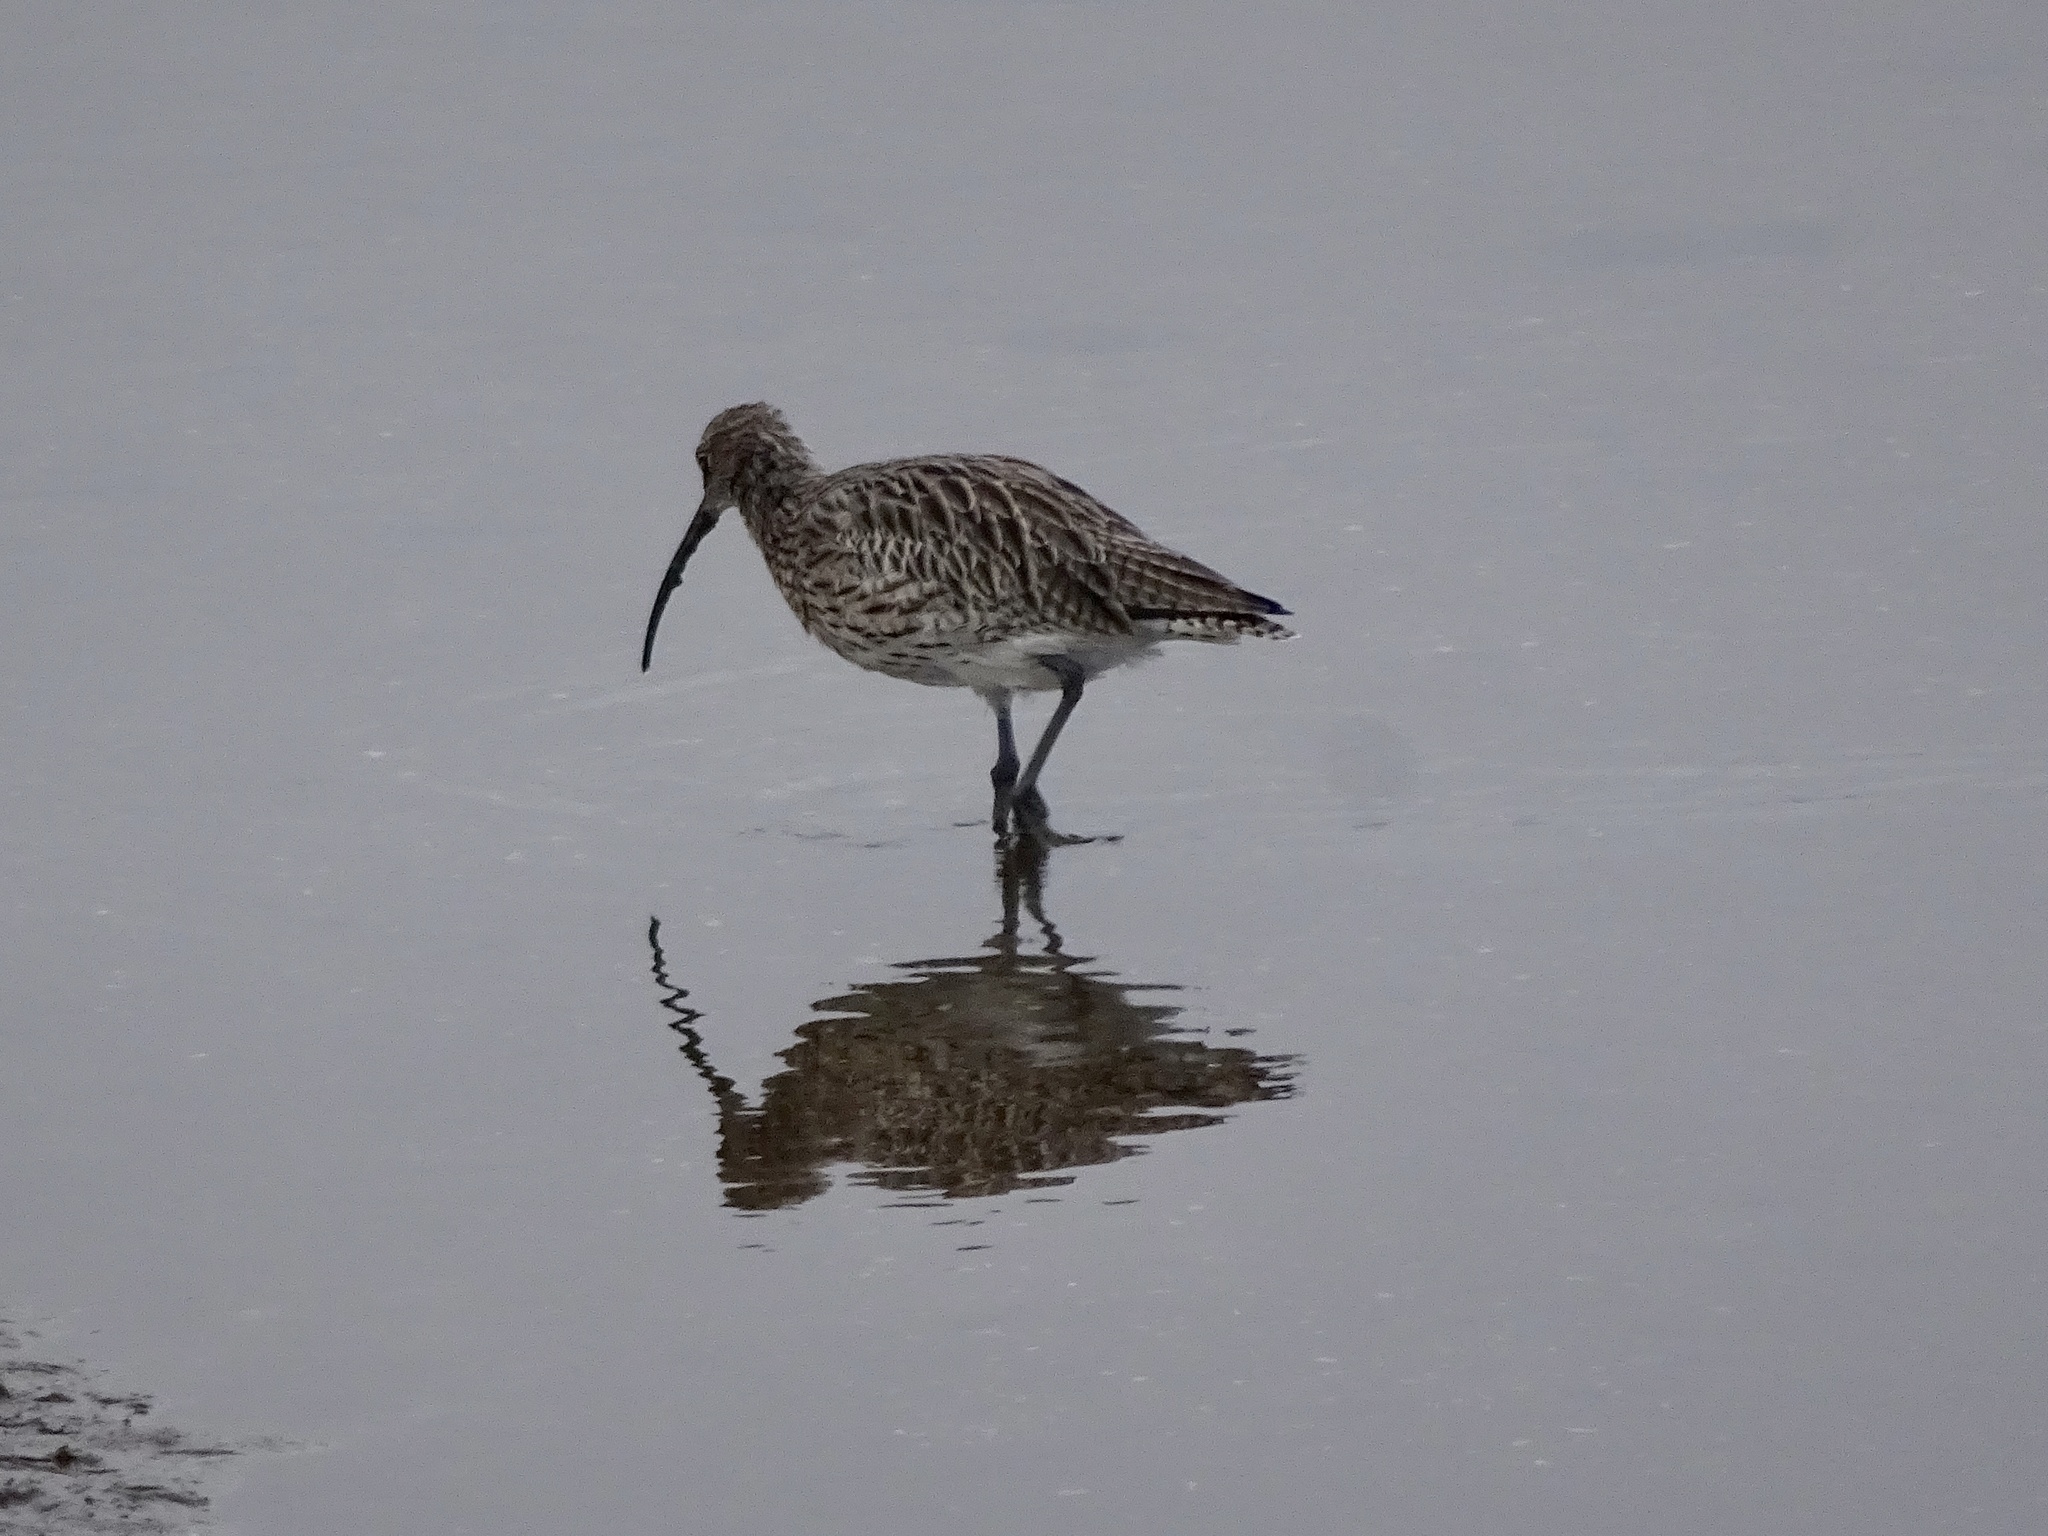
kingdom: Animalia
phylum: Chordata
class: Aves
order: Charadriiformes
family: Scolopacidae
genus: Numenius
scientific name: Numenius arquata
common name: Eurasian curlew
